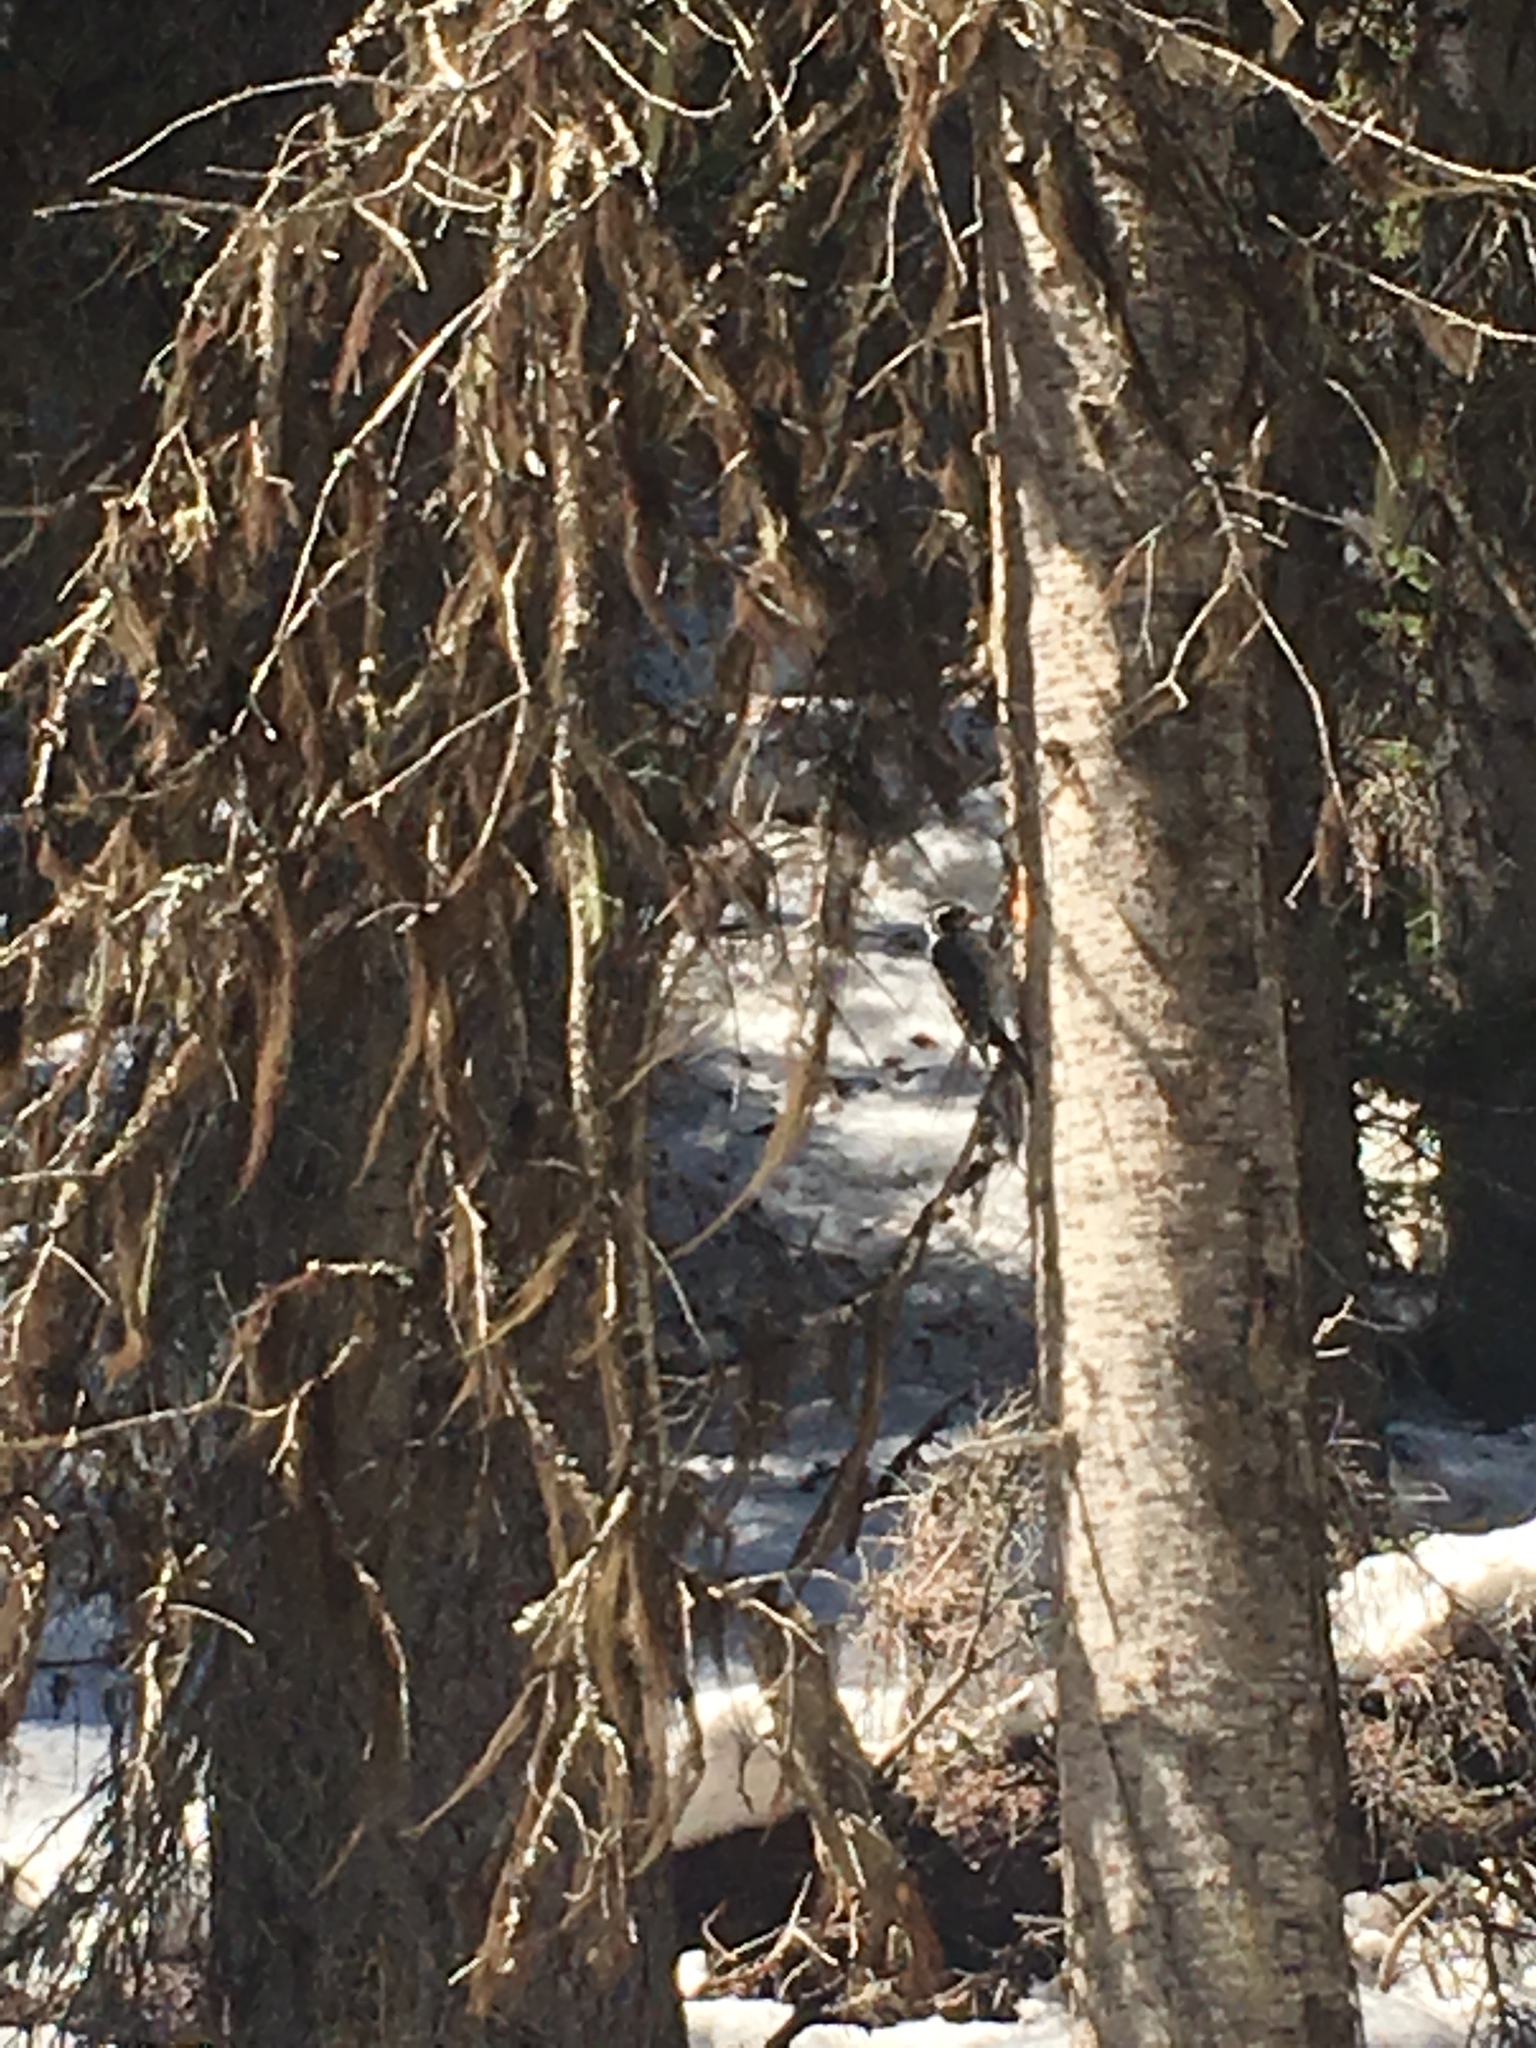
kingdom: Animalia
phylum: Chordata
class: Aves
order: Piciformes
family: Picidae
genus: Picoides
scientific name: Picoides dorsalis
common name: American three-toed woodpecker
